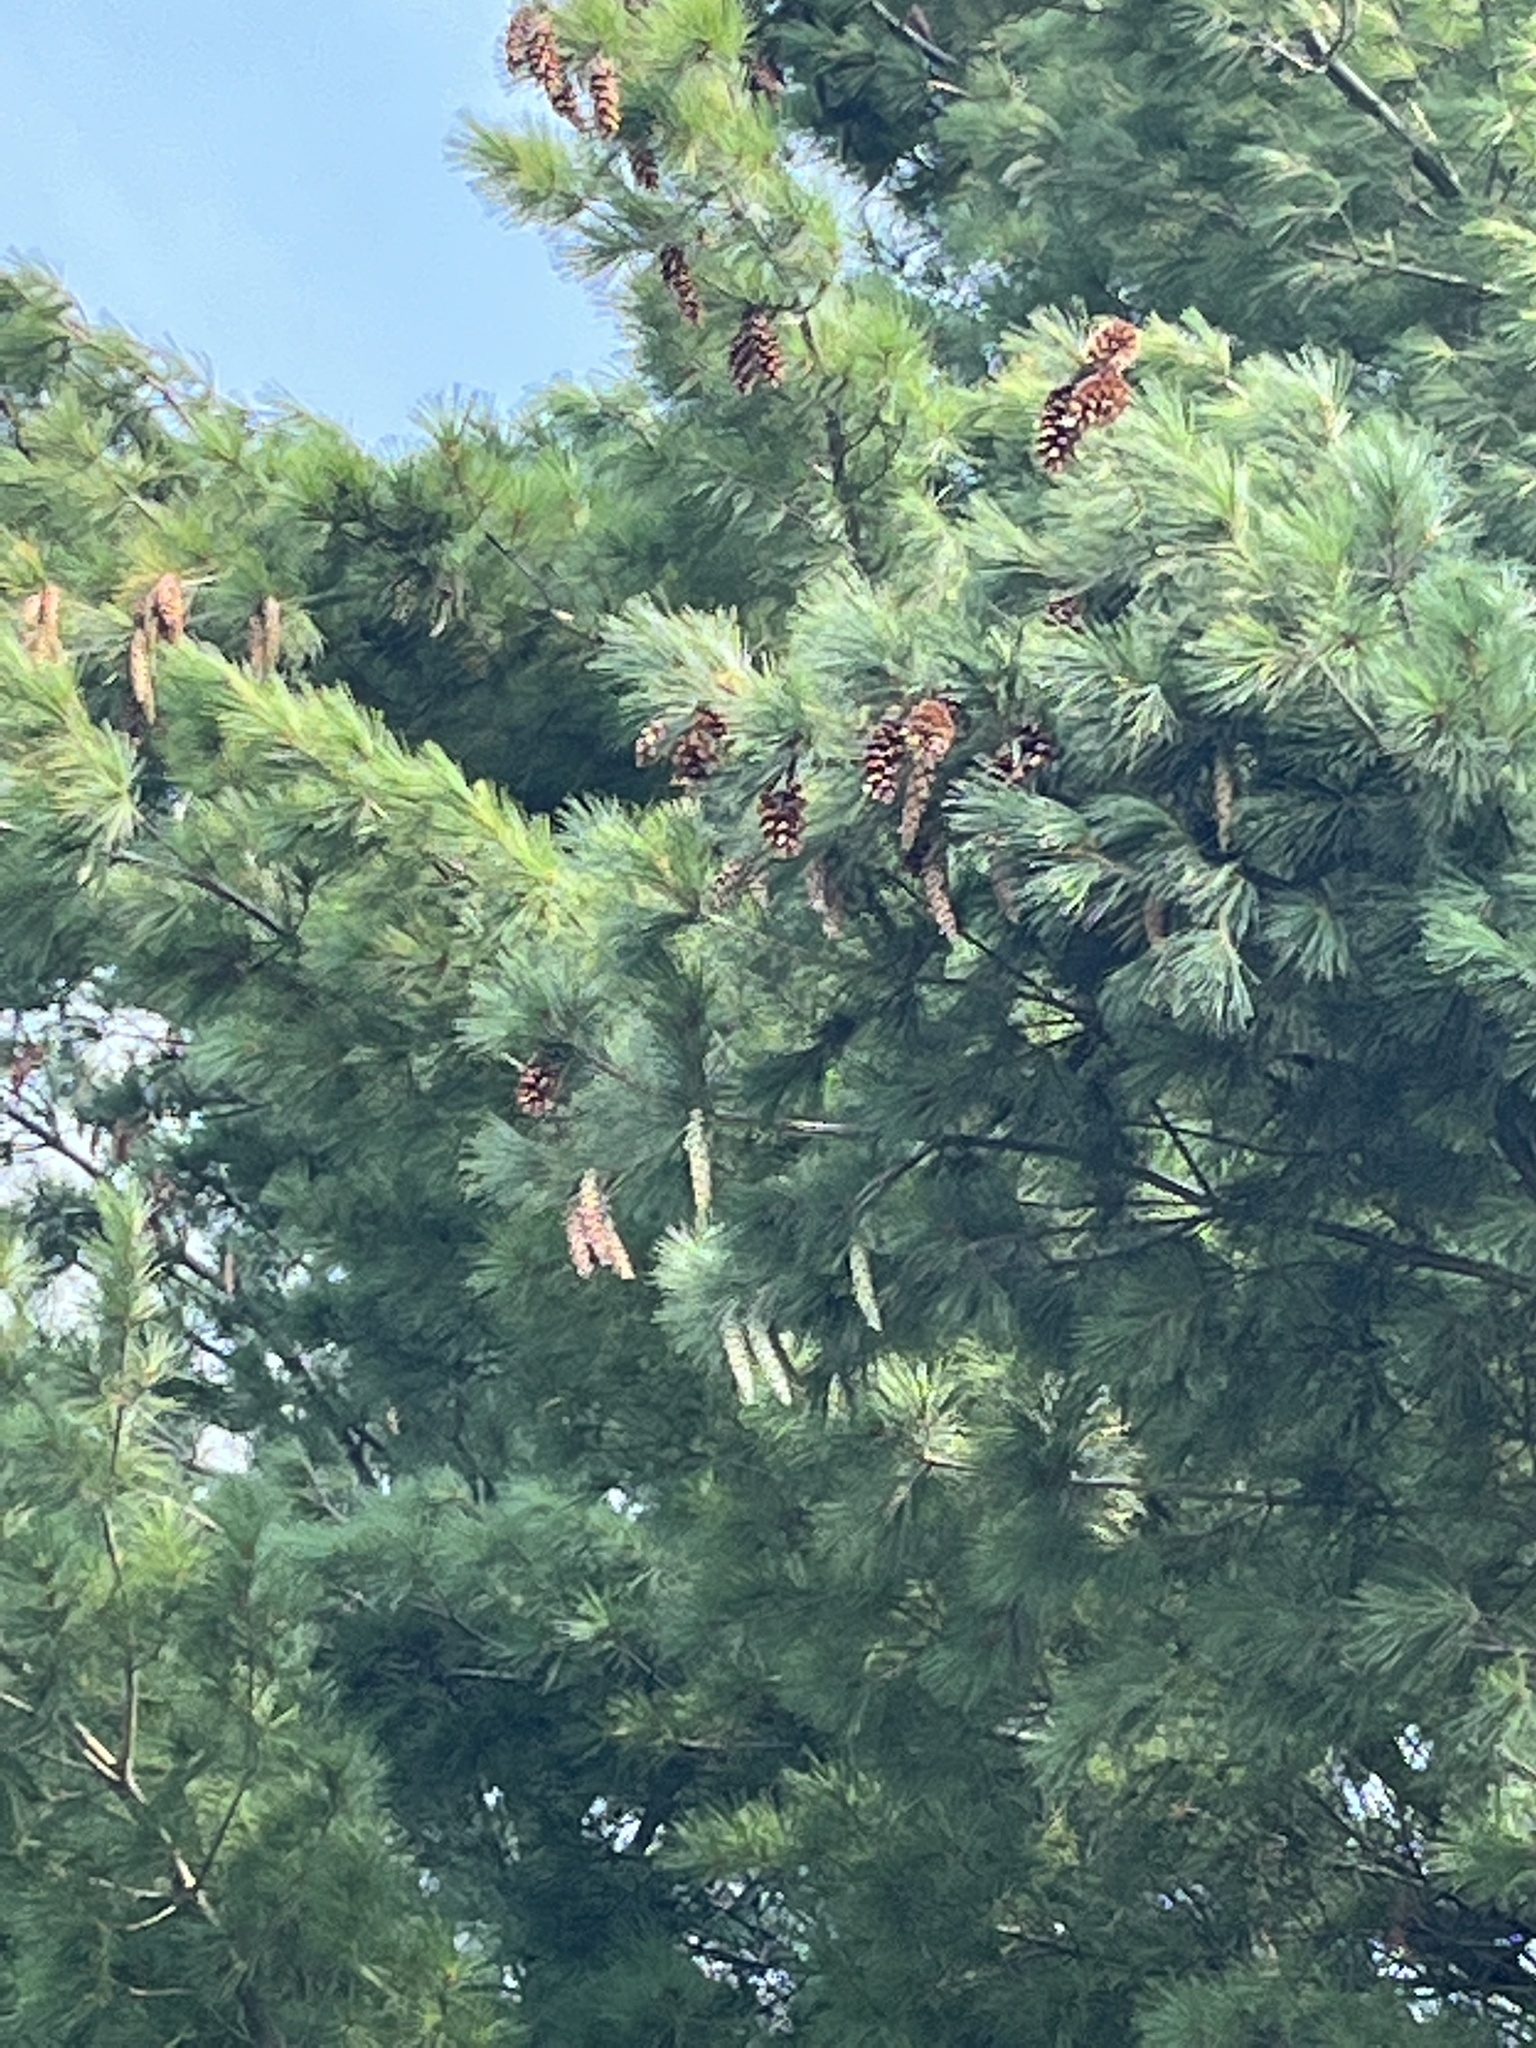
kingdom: Plantae
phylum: Tracheophyta
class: Pinopsida
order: Pinales
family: Pinaceae
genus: Pinus
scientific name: Pinus strobus
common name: Weymouth pine
